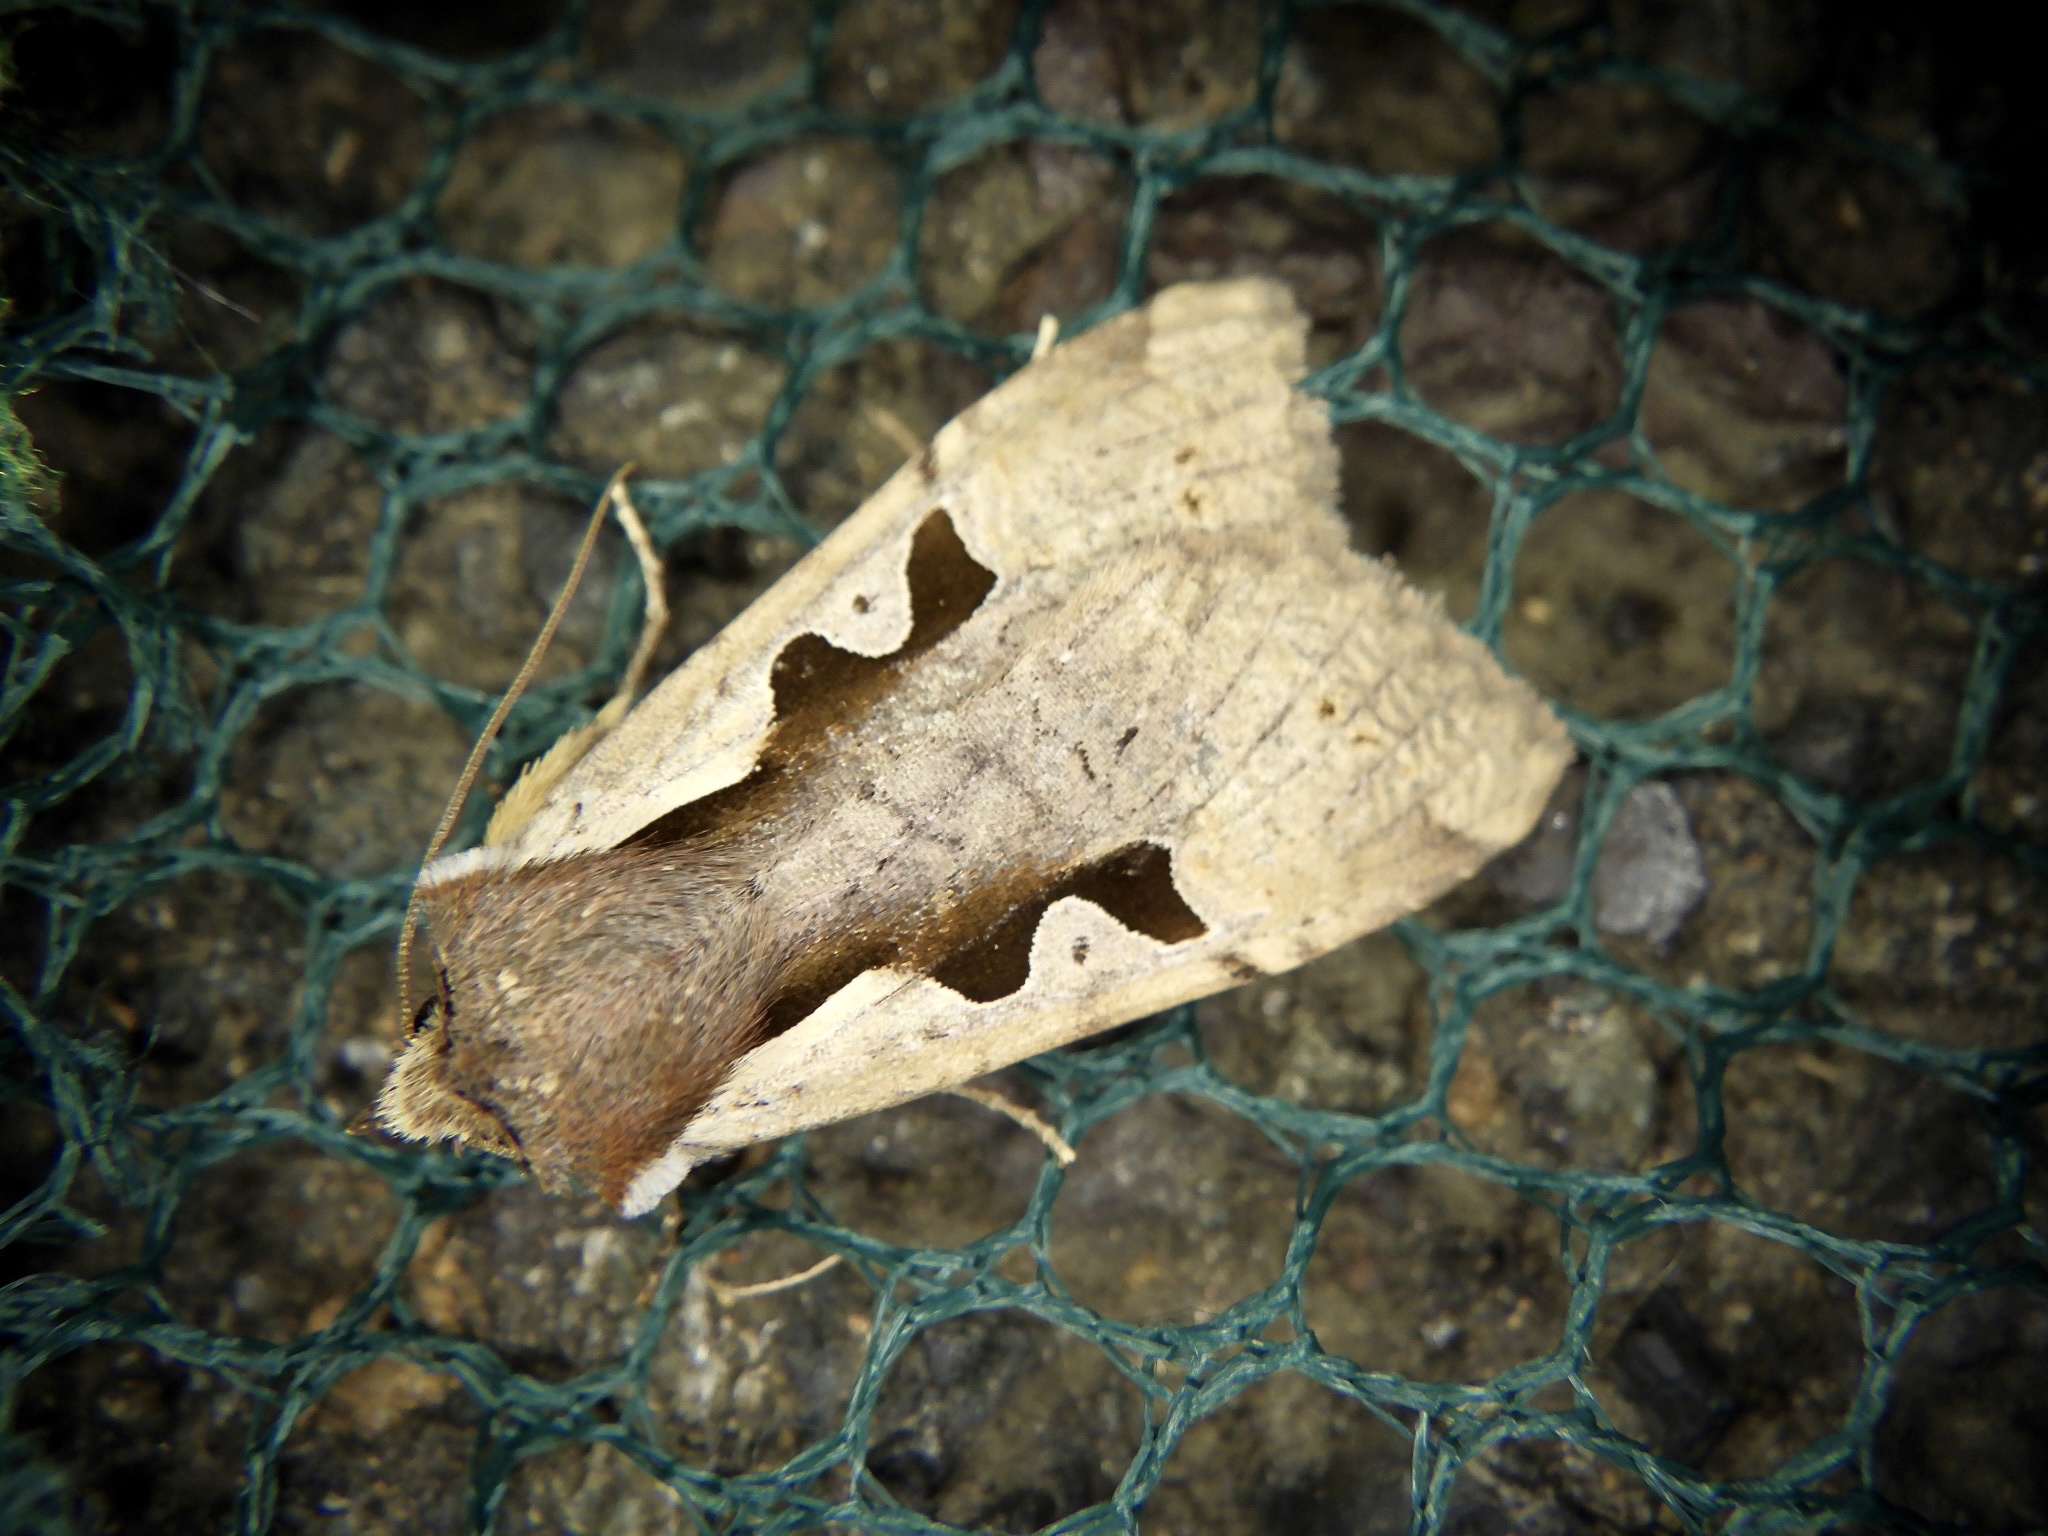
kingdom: Animalia
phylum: Arthropoda
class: Insecta
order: Lepidoptera
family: Noctuidae
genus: Sugitania
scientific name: Sugitania
